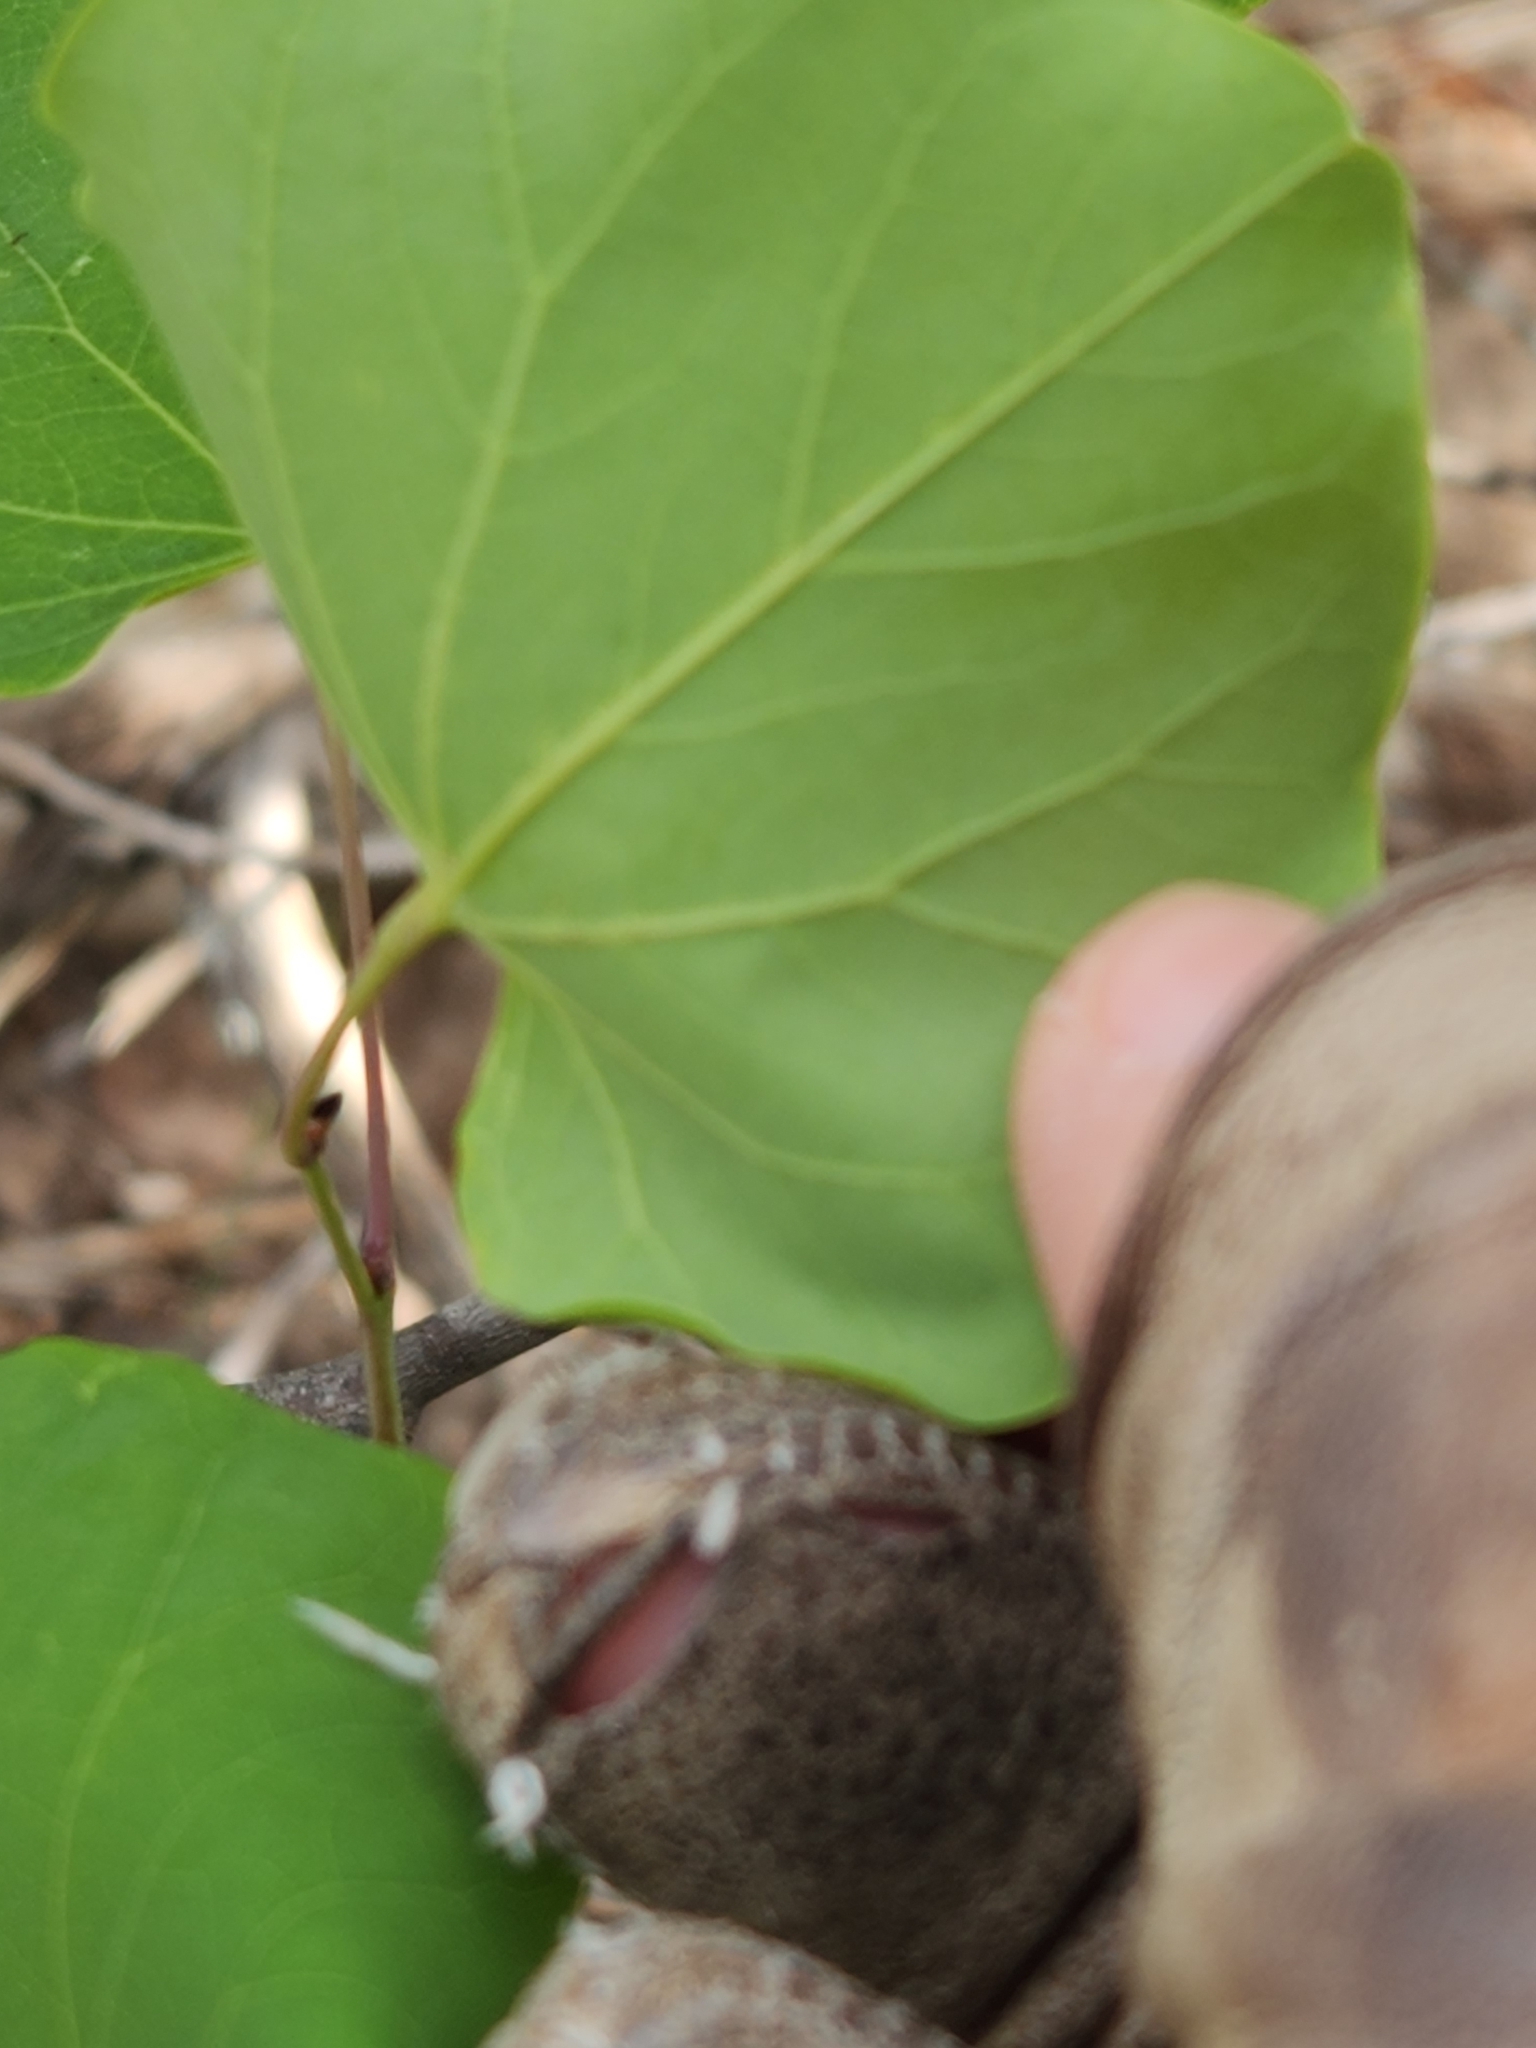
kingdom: Plantae
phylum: Tracheophyta
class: Magnoliopsida
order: Fabales
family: Fabaceae
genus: Cercis
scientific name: Cercis canadensis
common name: Eastern redbud
